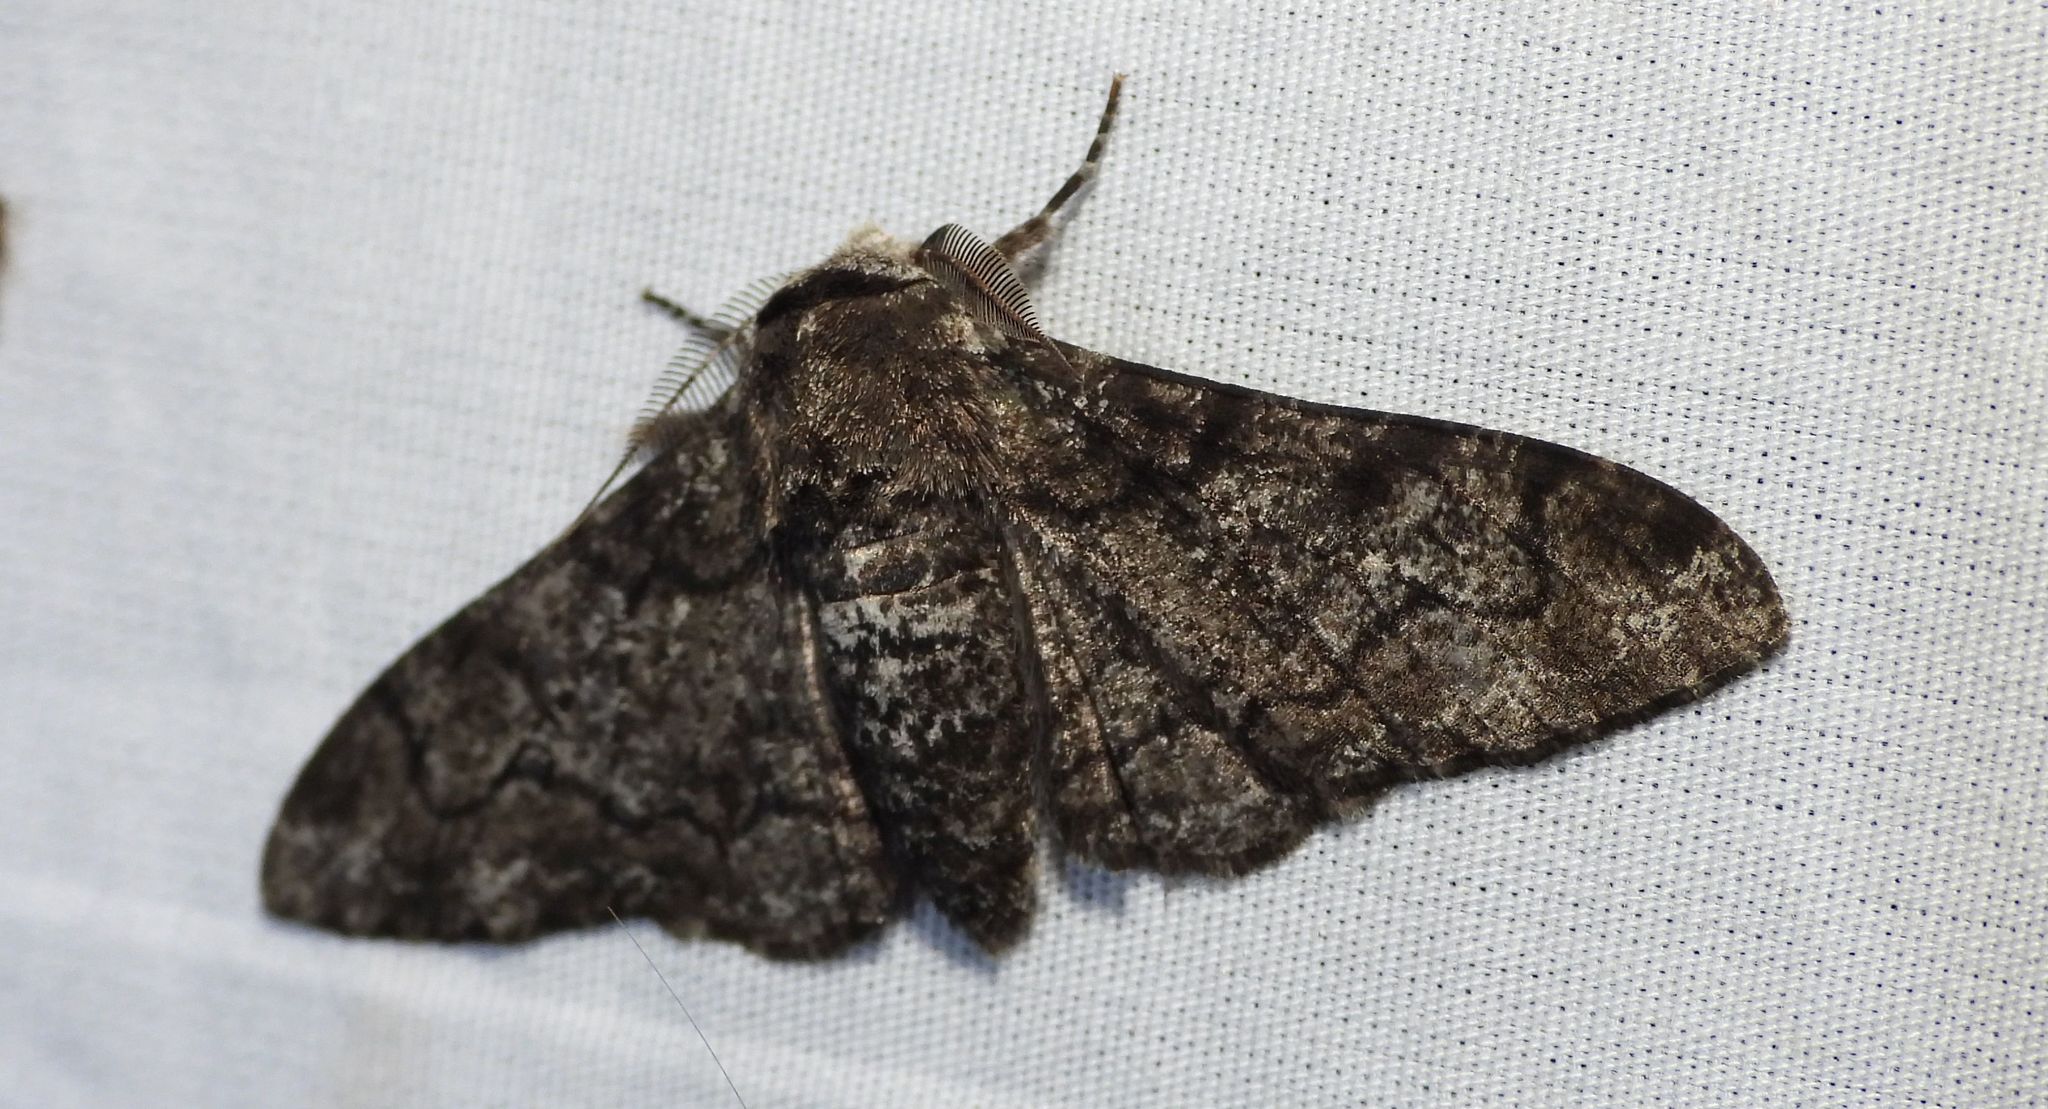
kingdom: Animalia
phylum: Arthropoda
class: Insecta
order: Lepidoptera
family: Geometridae
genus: Biston
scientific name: Biston betularia
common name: Peppered moth
